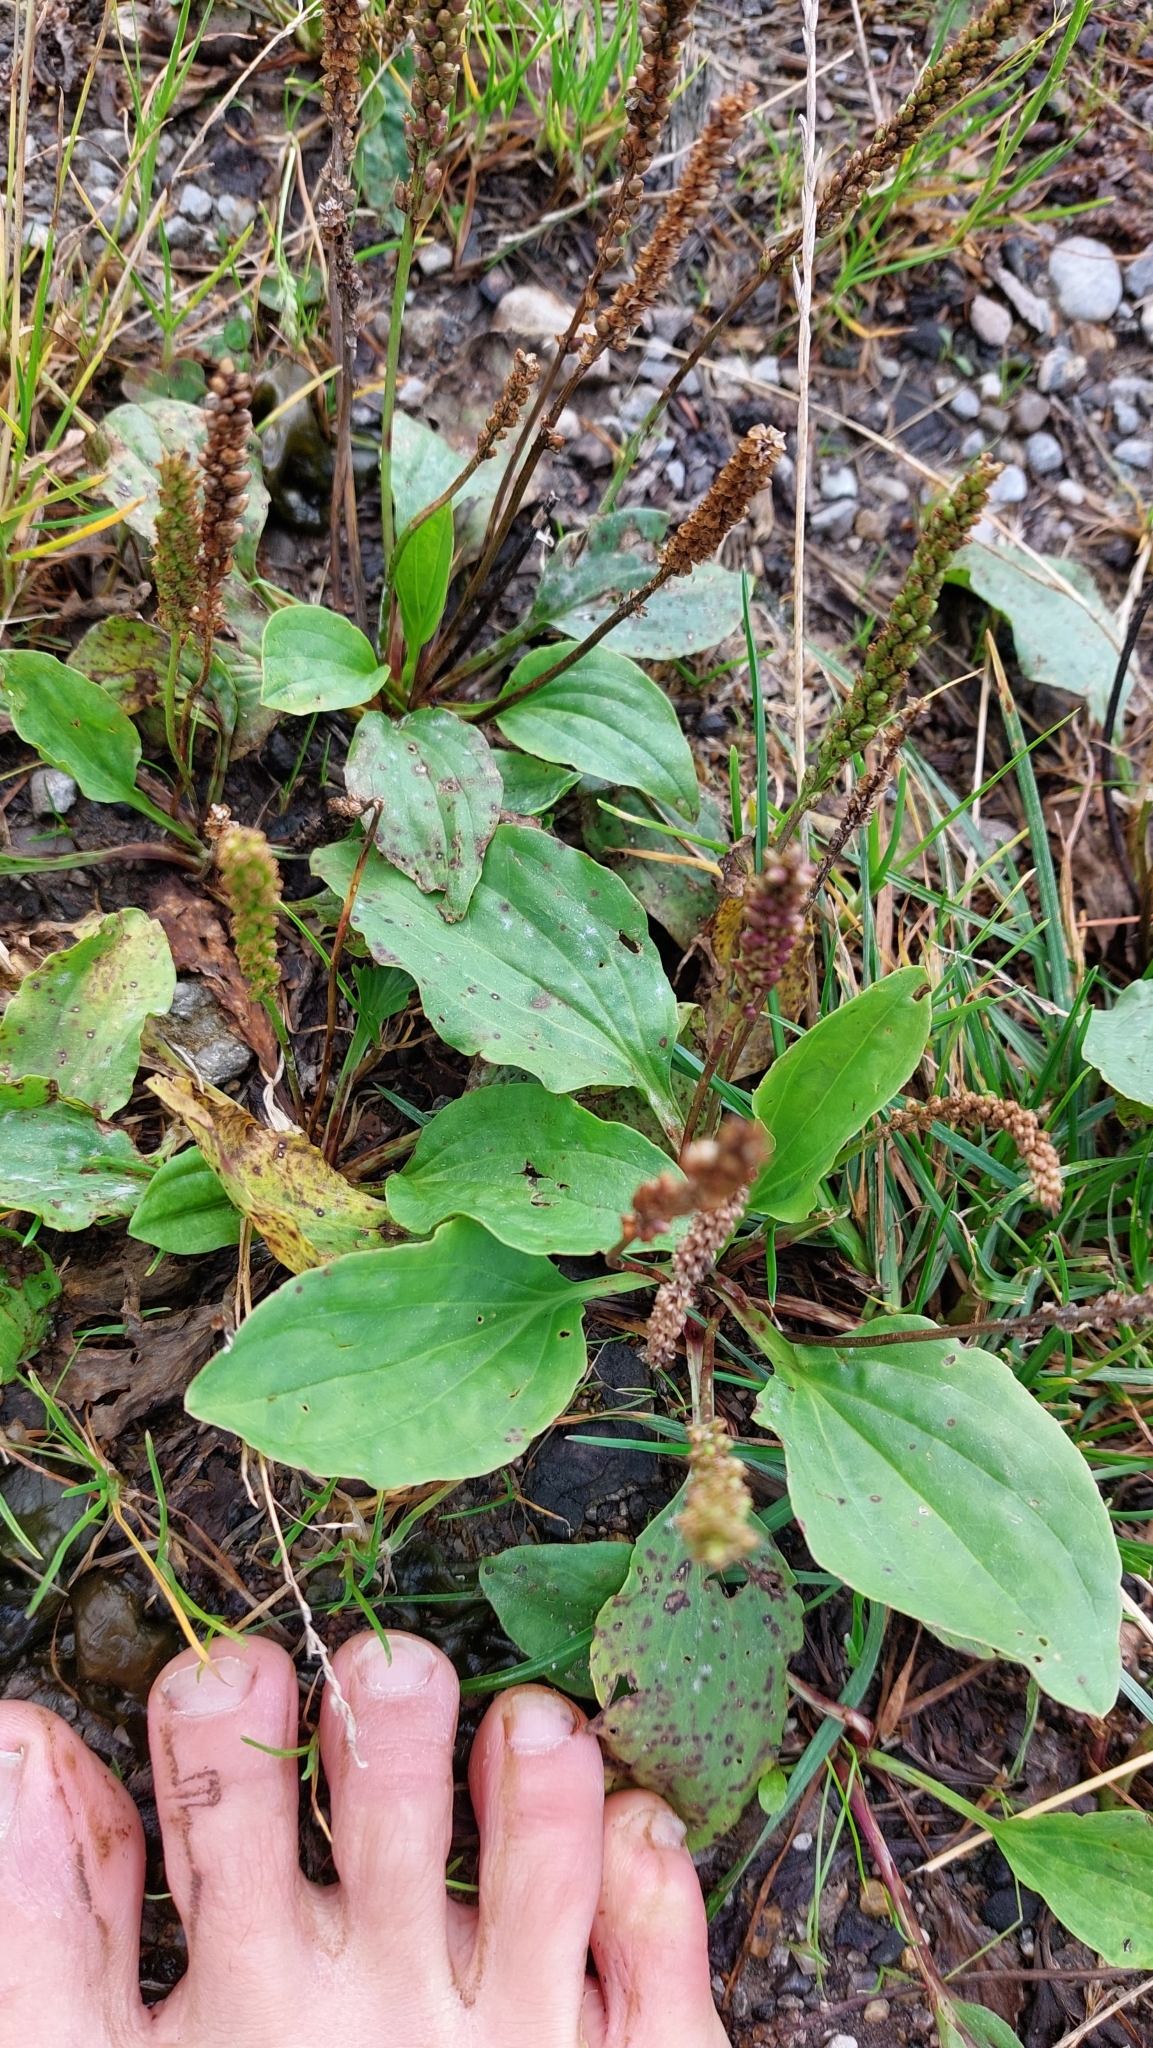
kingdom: Plantae
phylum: Tracheophyta
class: Magnoliopsida
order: Lamiales
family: Plantaginaceae
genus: Plantago
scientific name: Plantago major
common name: Common plantain
